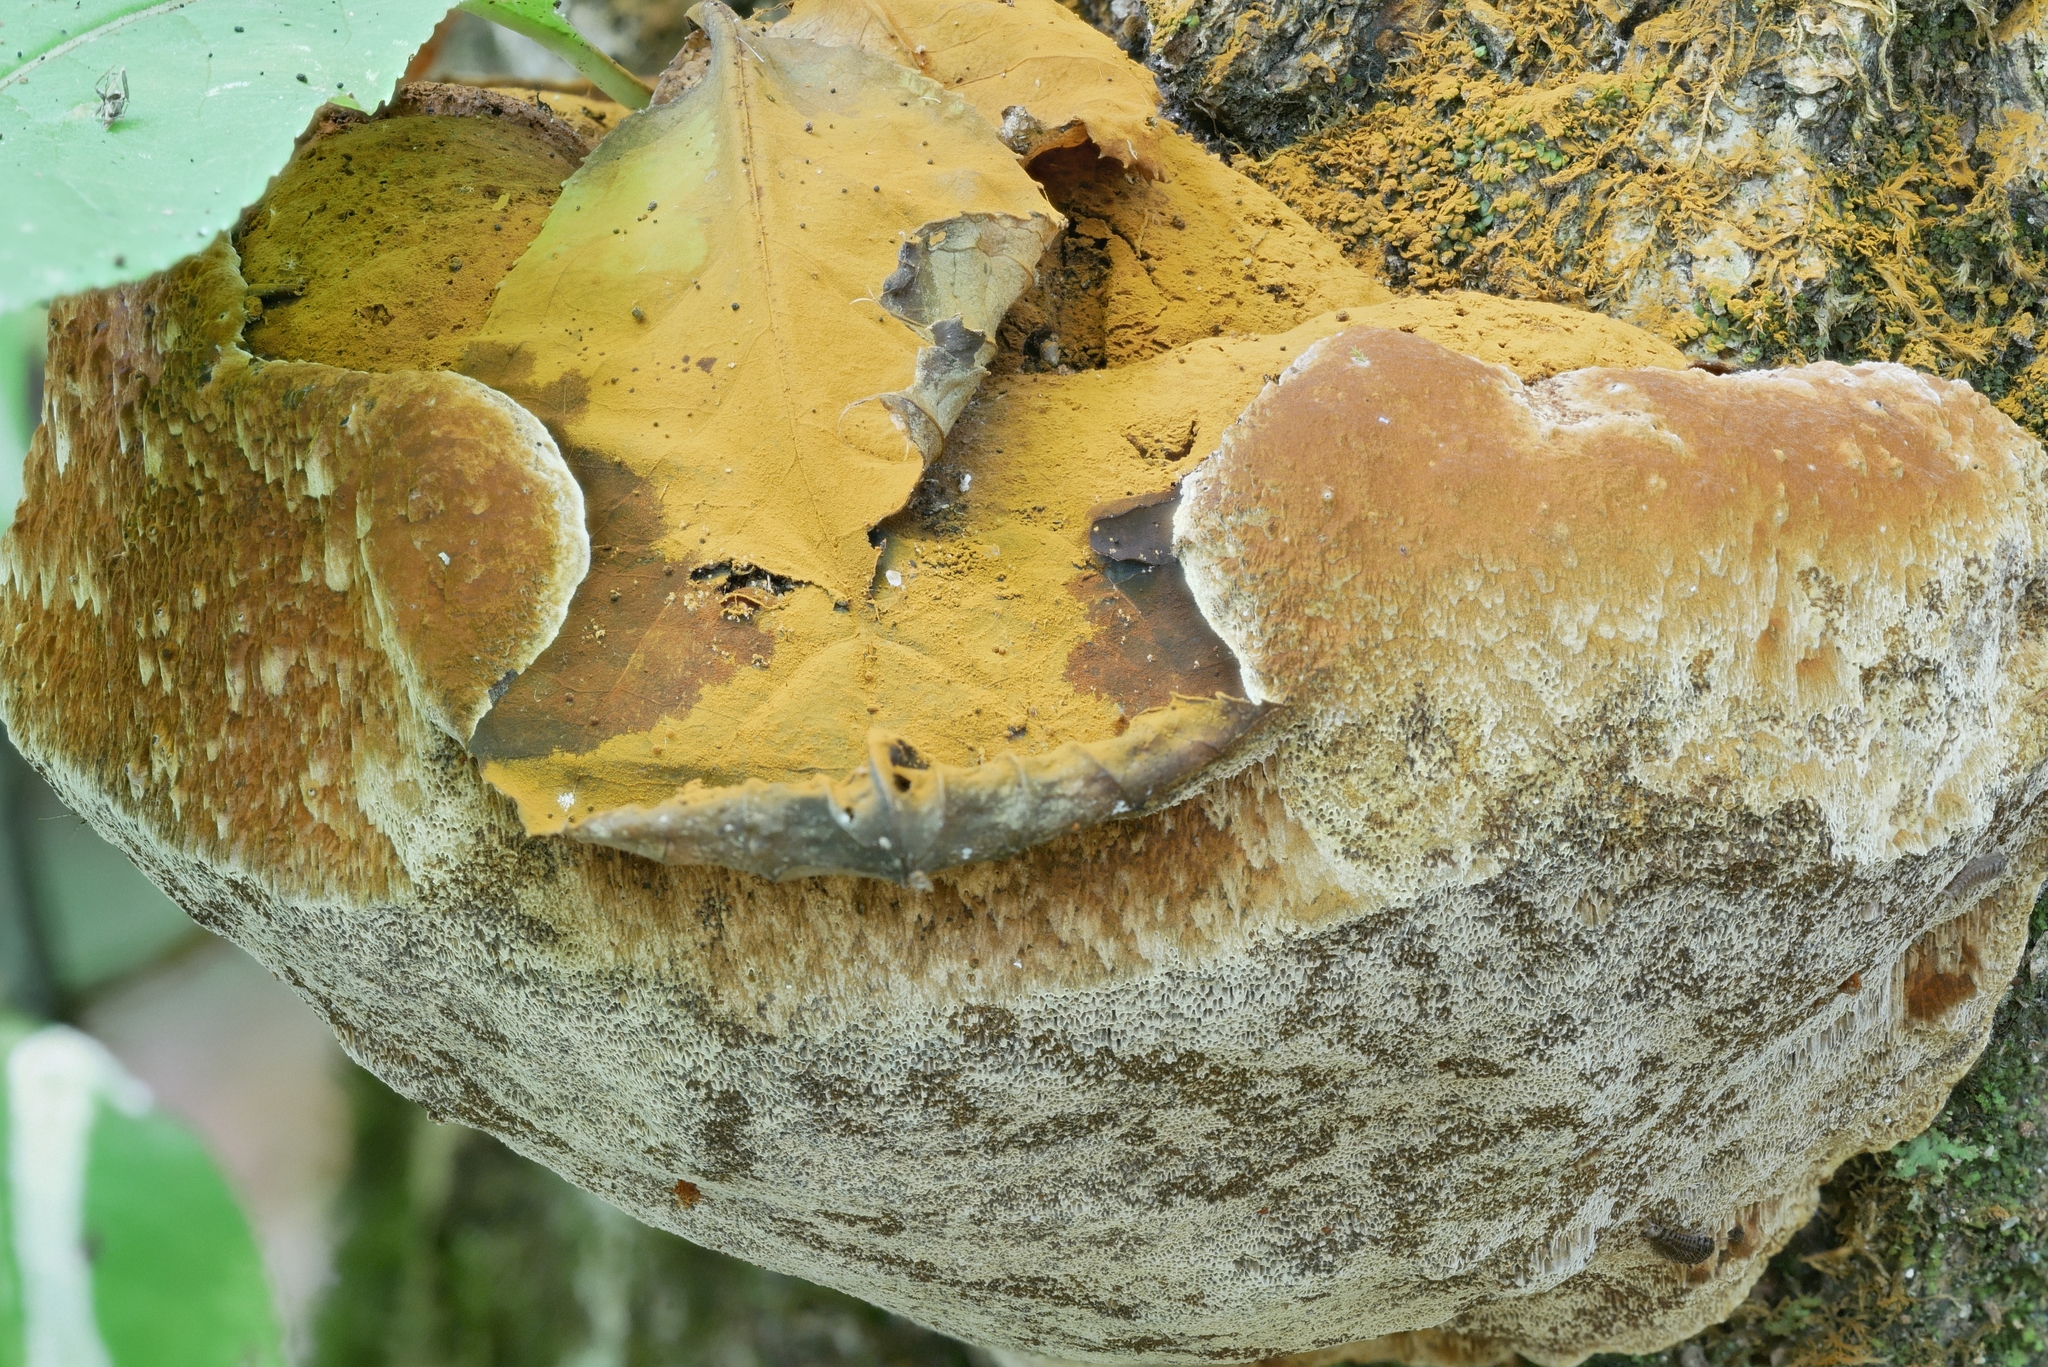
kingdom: Fungi
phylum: Basidiomycota
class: Agaricomycetes
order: Hymenochaetales
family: Hymenochaetaceae
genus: Meganotus
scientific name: Meganotus everhartii
